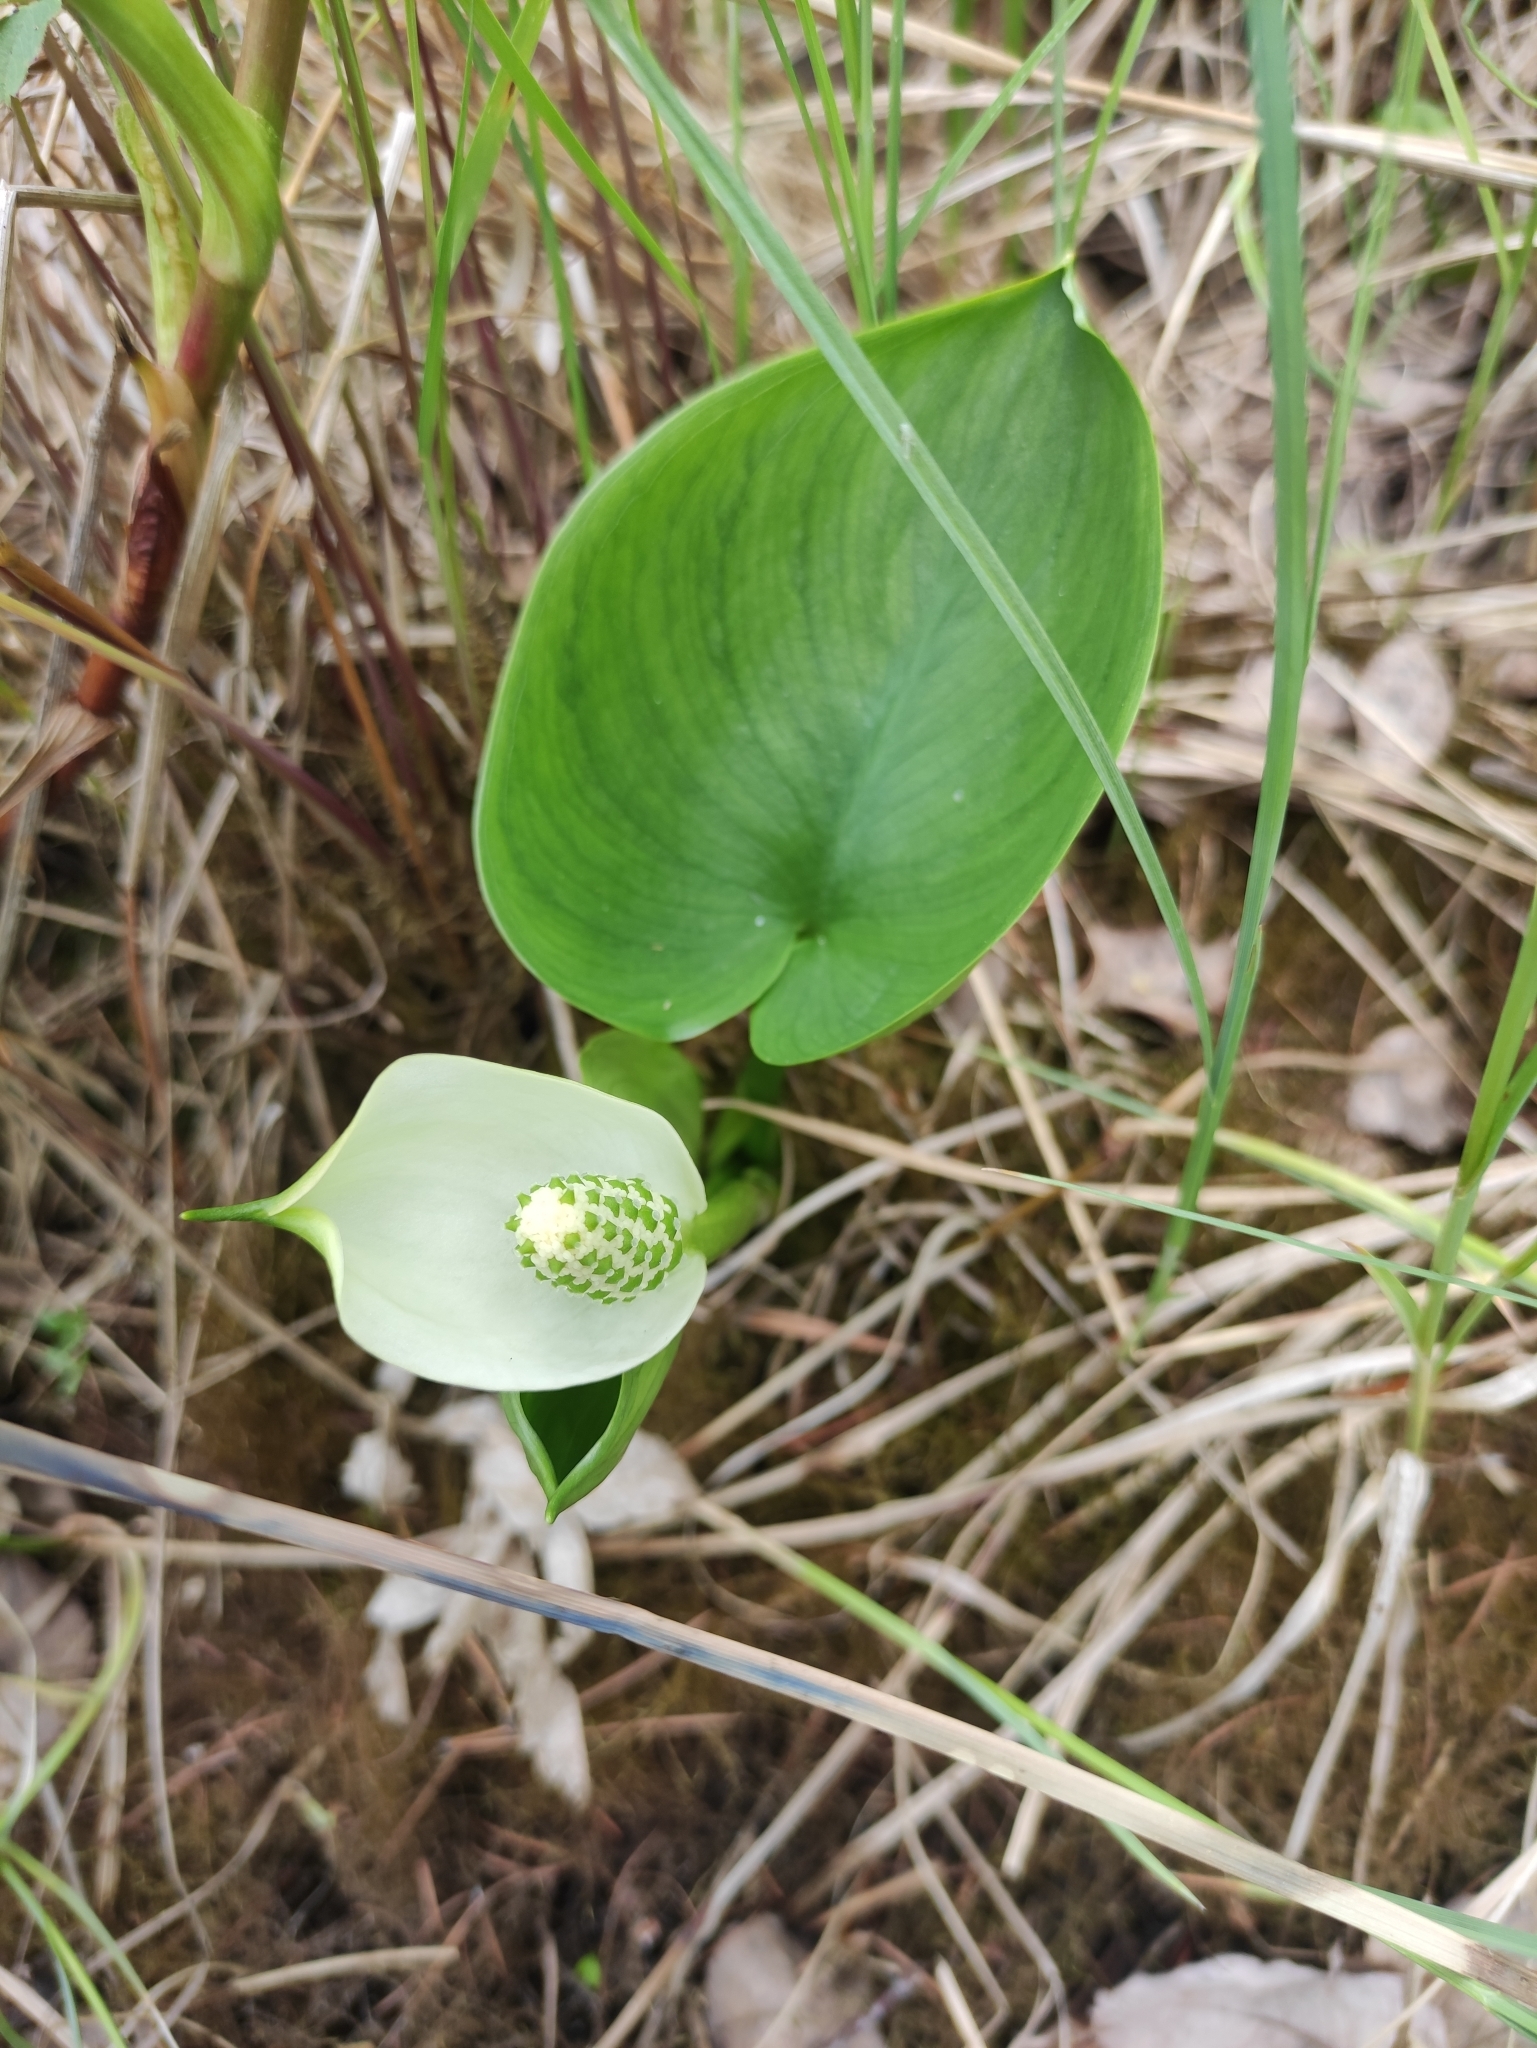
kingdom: Plantae
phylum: Tracheophyta
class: Liliopsida
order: Alismatales
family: Araceae
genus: Calla
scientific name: Calla palustris
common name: Bog arum
